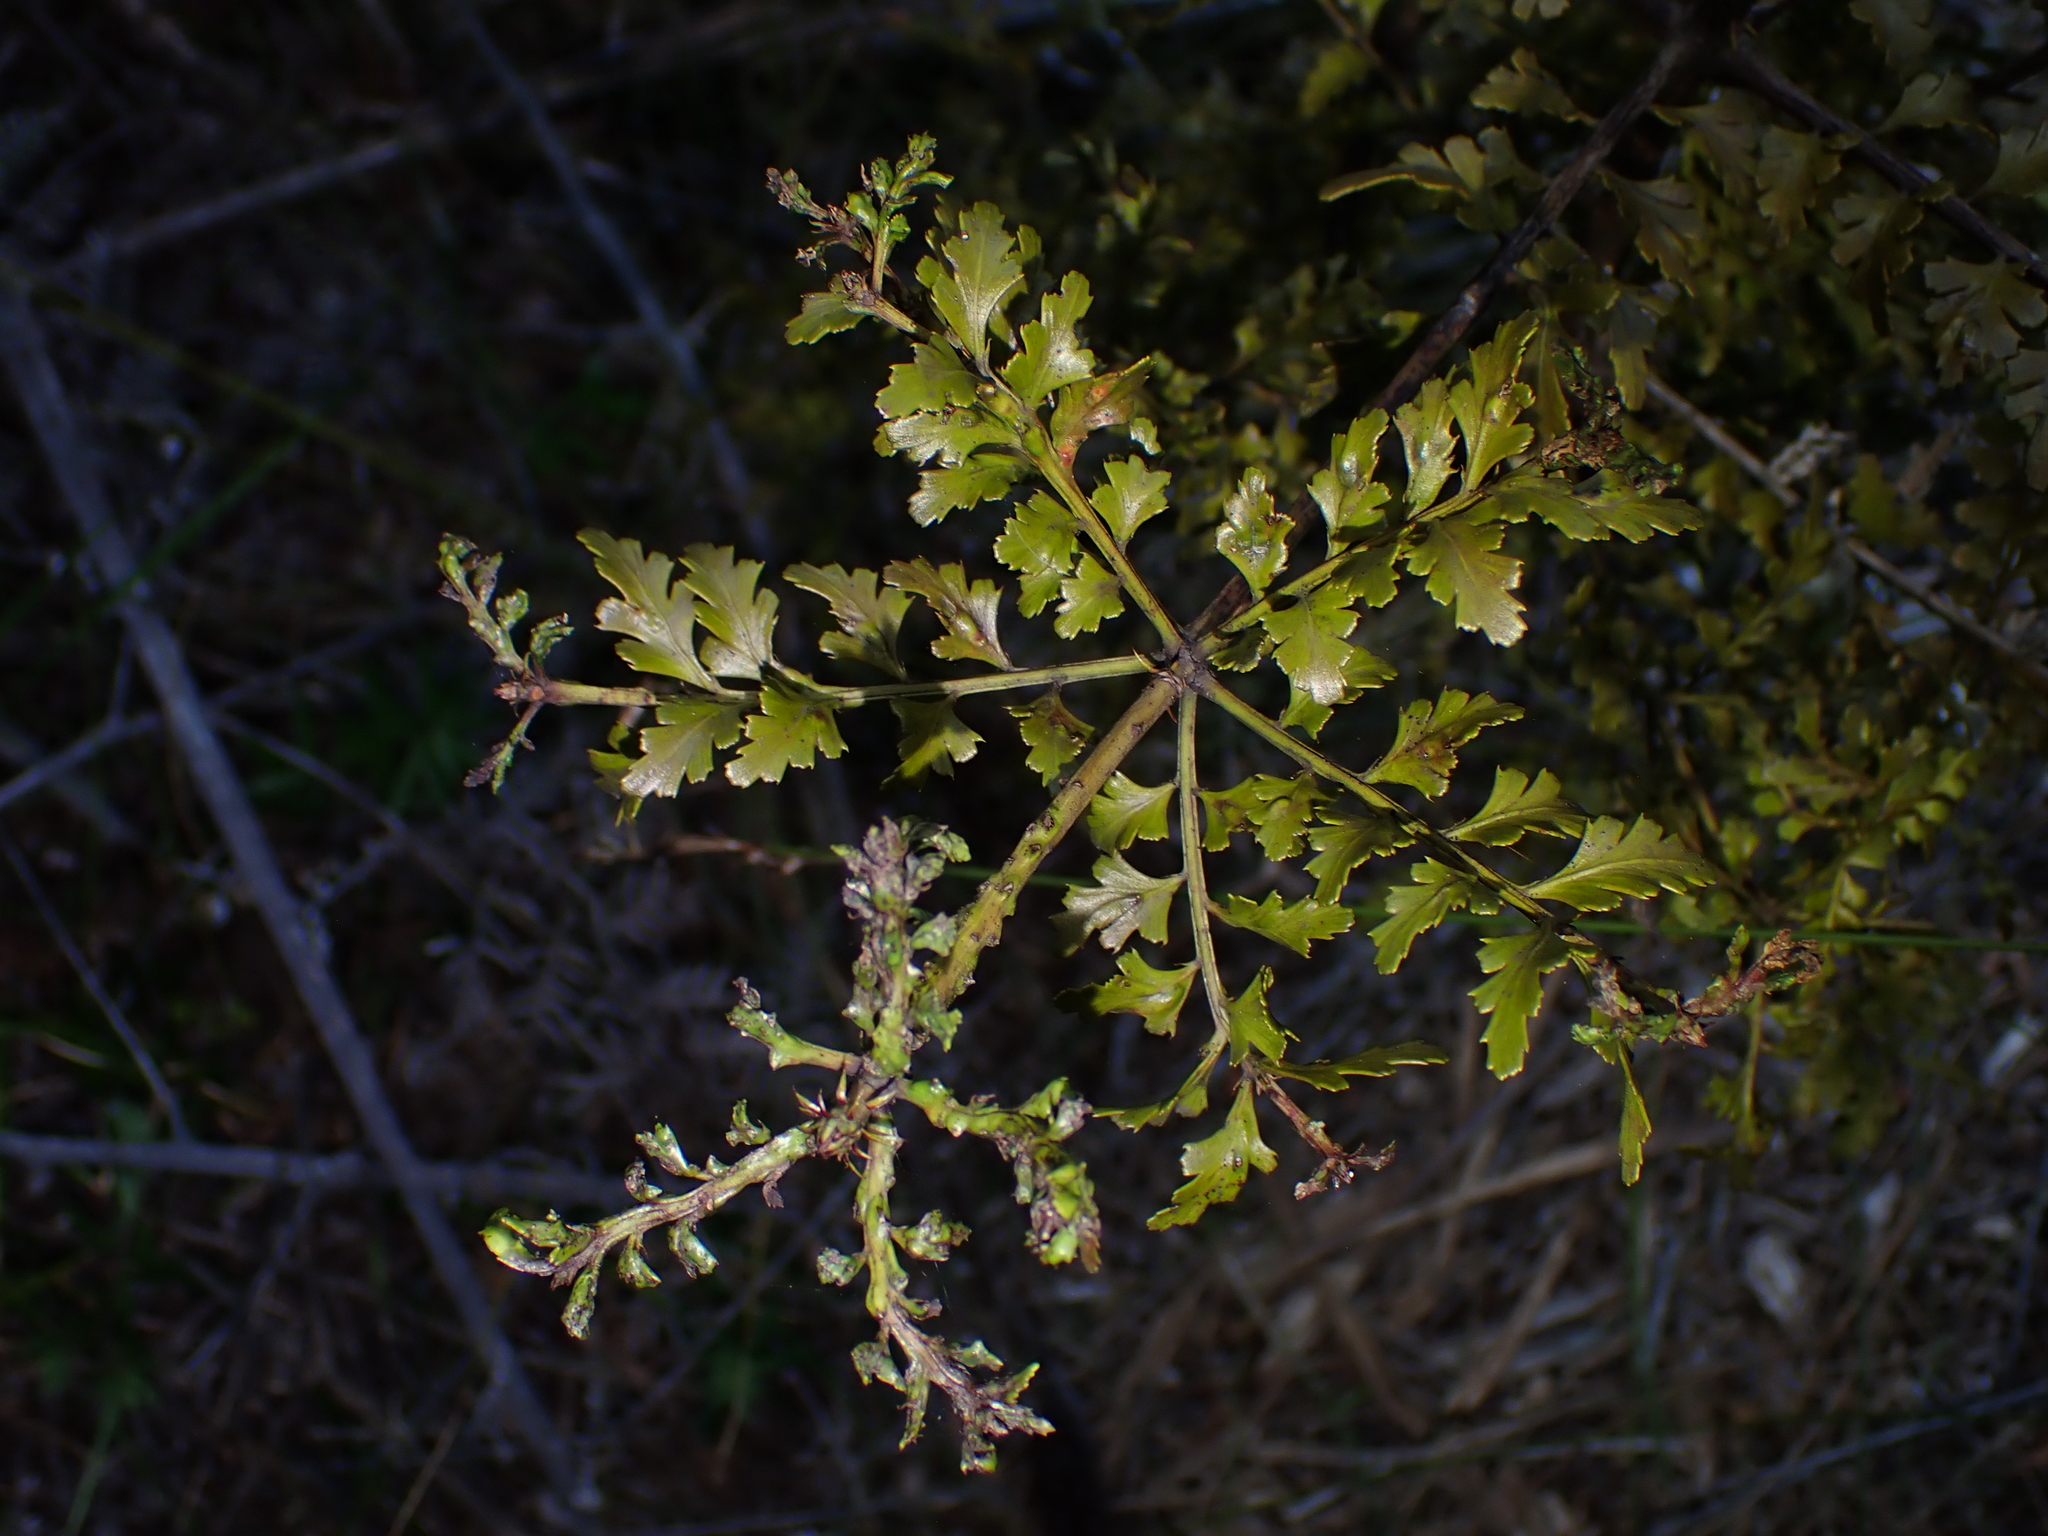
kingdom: Plantae
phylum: Tracheophyta
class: Pinopsida
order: Pinales
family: Phyllocladaceae
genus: Phyllocladus
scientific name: Phyllocladus trichomanoides
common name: Celery pine
